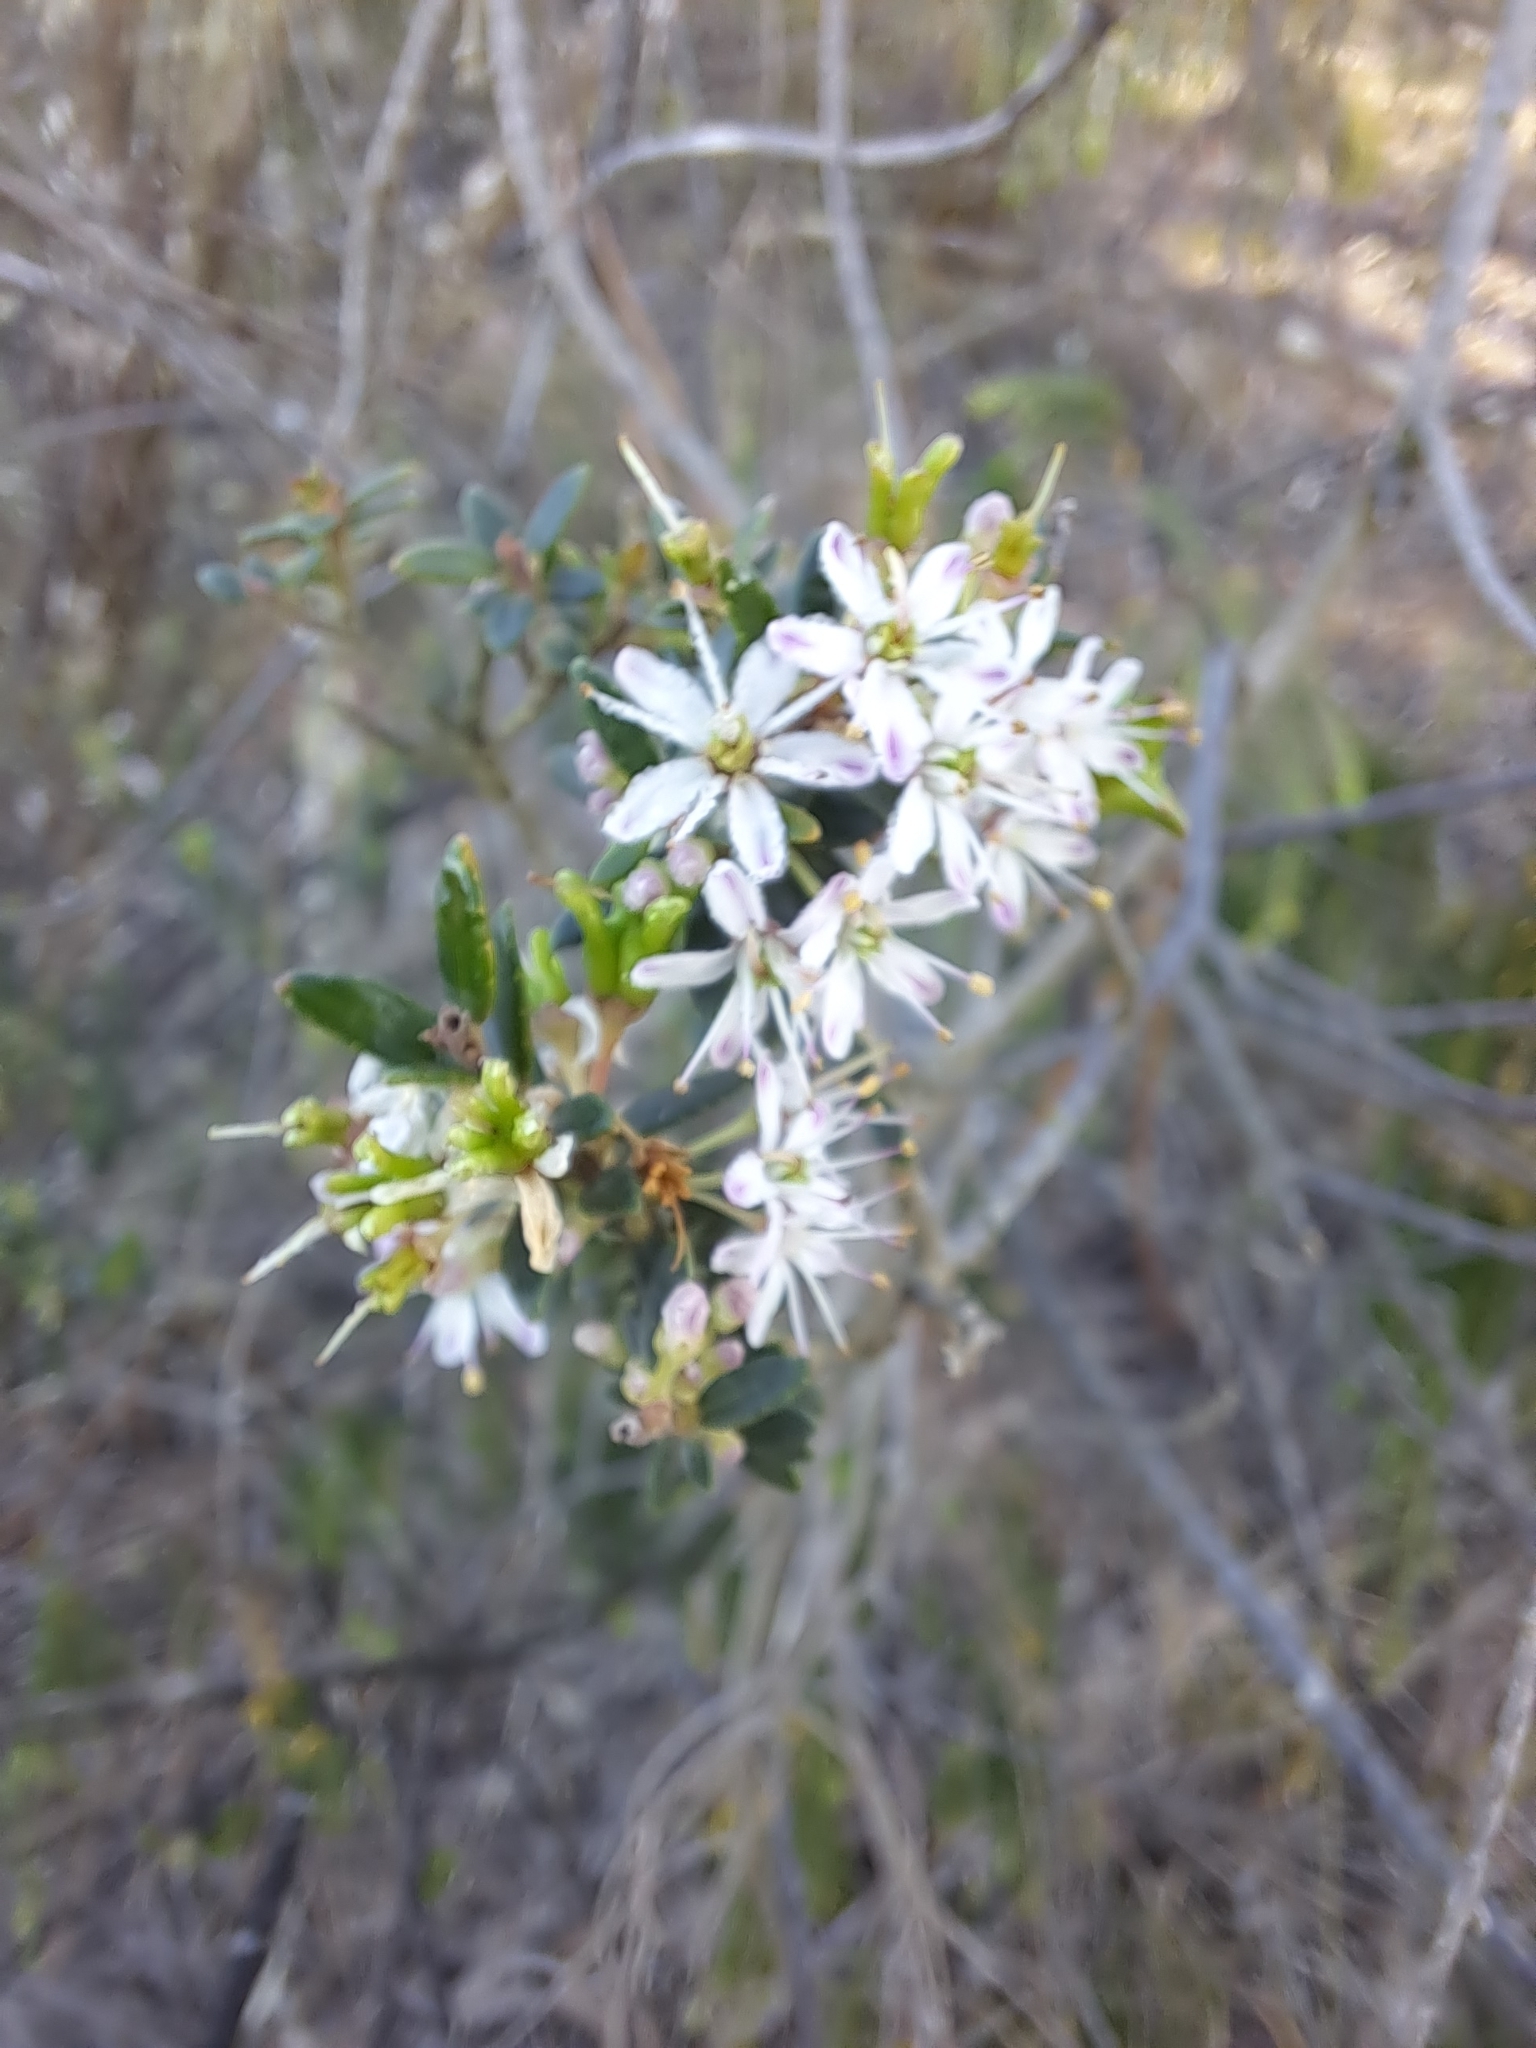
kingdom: Plantae
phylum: Tracheophyta
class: Magnoliopsida
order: Sapindales
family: Rutaceae
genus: Agathosma
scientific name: Agathosma ovata
